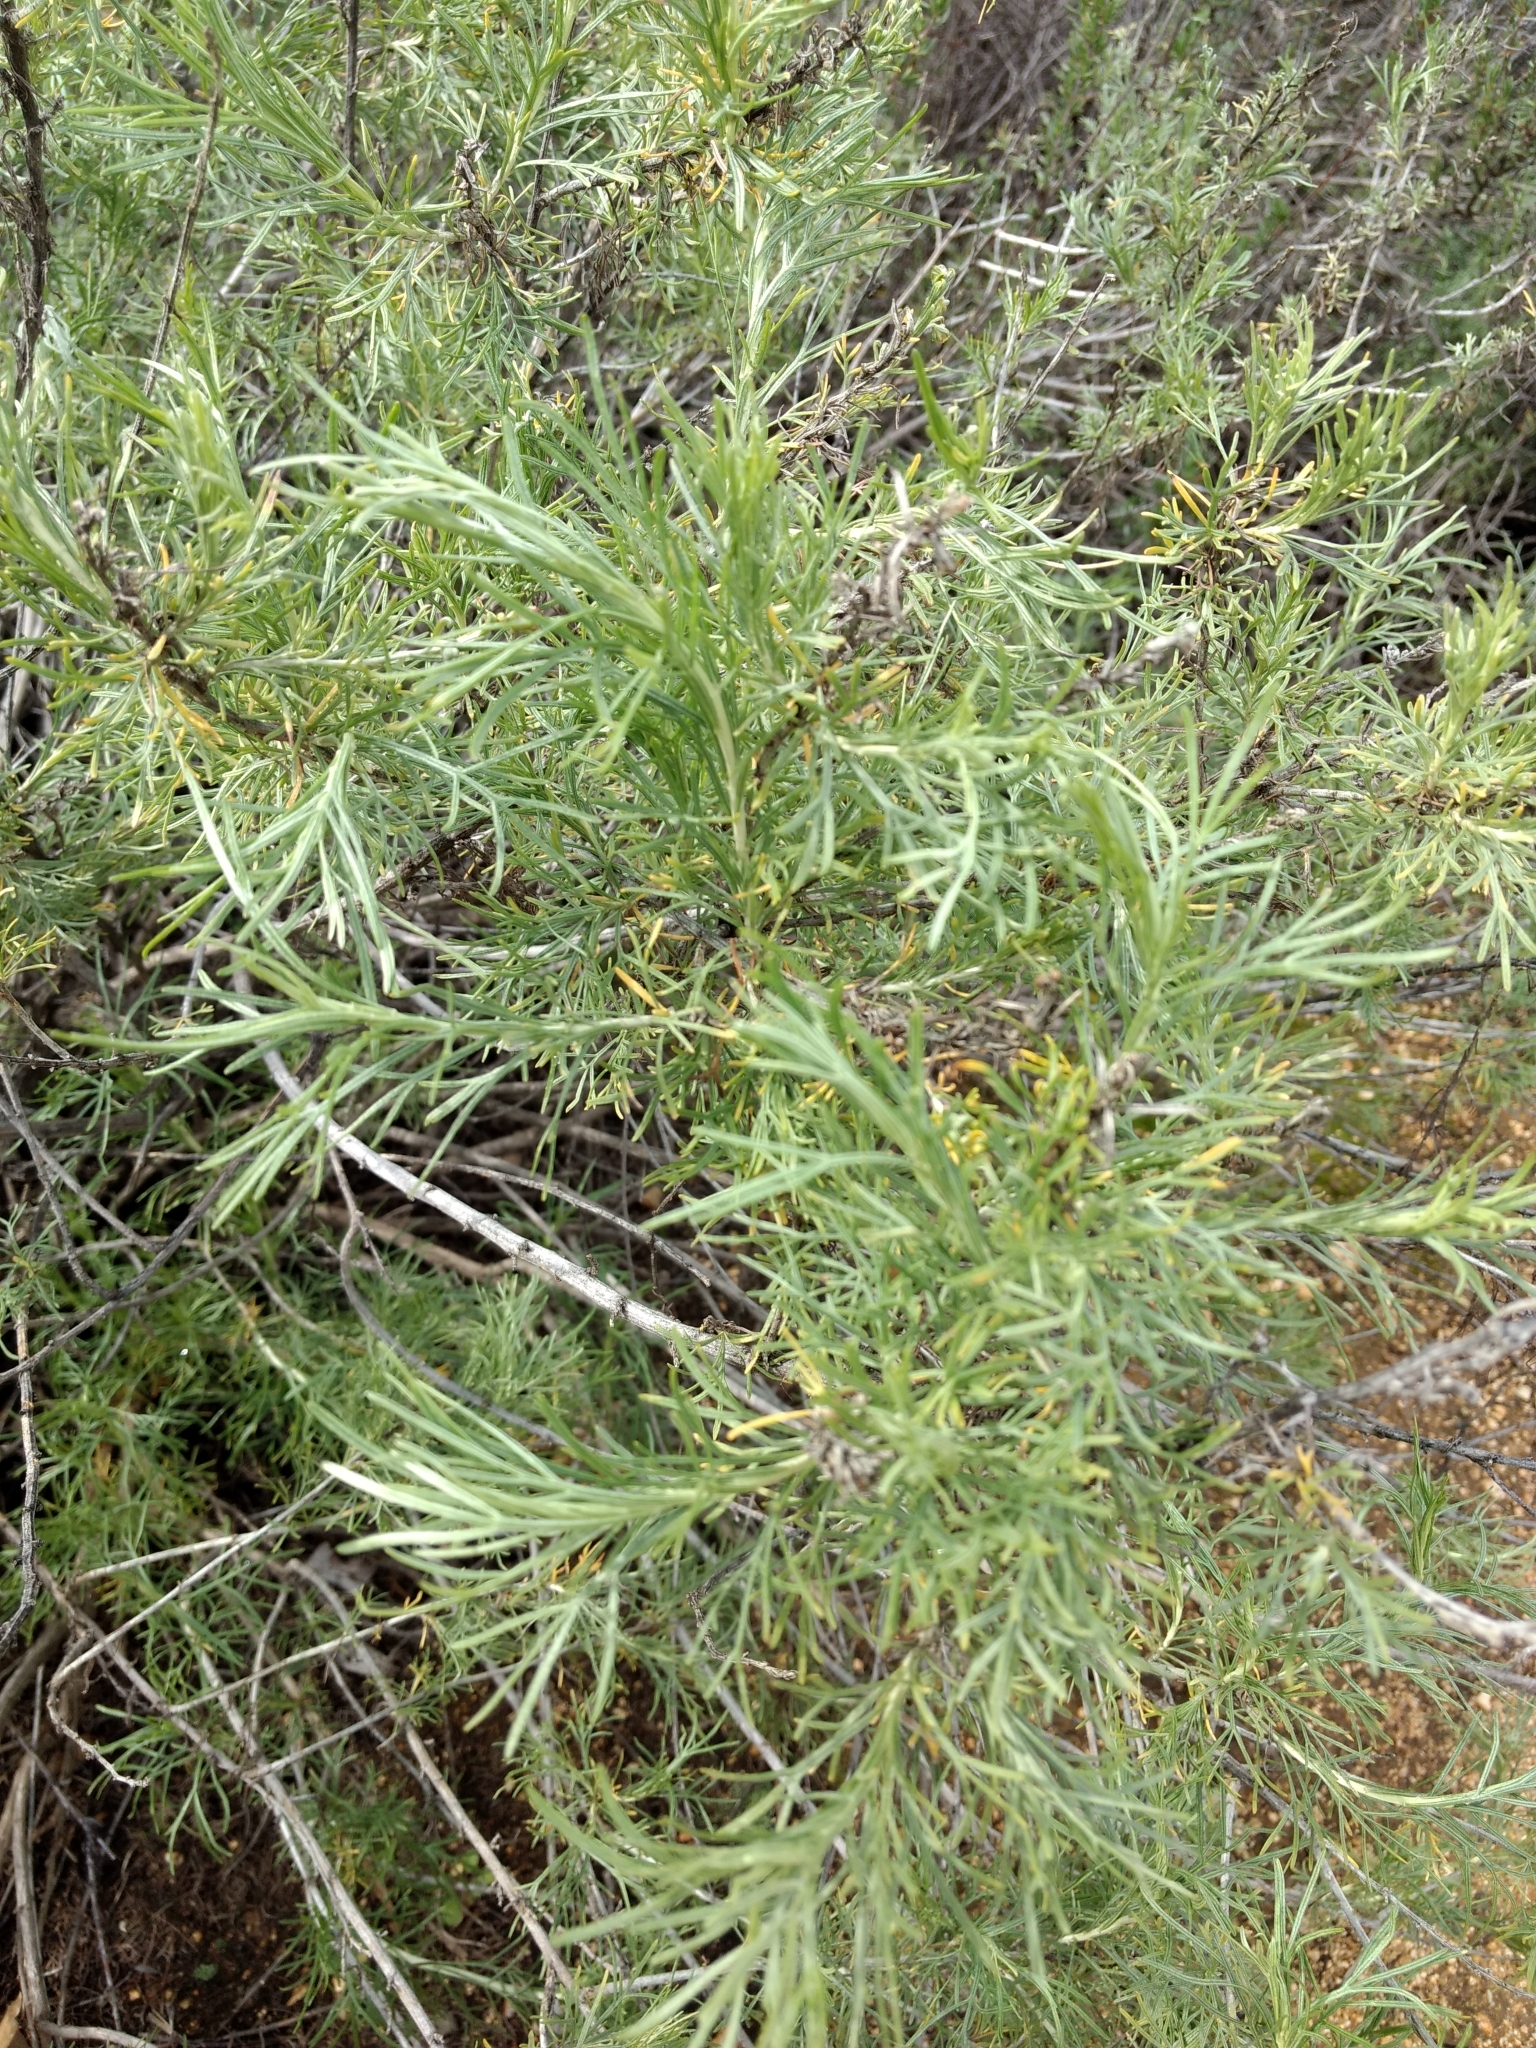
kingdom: Plantae
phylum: Tracheophyta
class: Magnoliopsida
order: Asterales
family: Asteraceae
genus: Artemisia
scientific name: Artemisia californica
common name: California sagebrush
